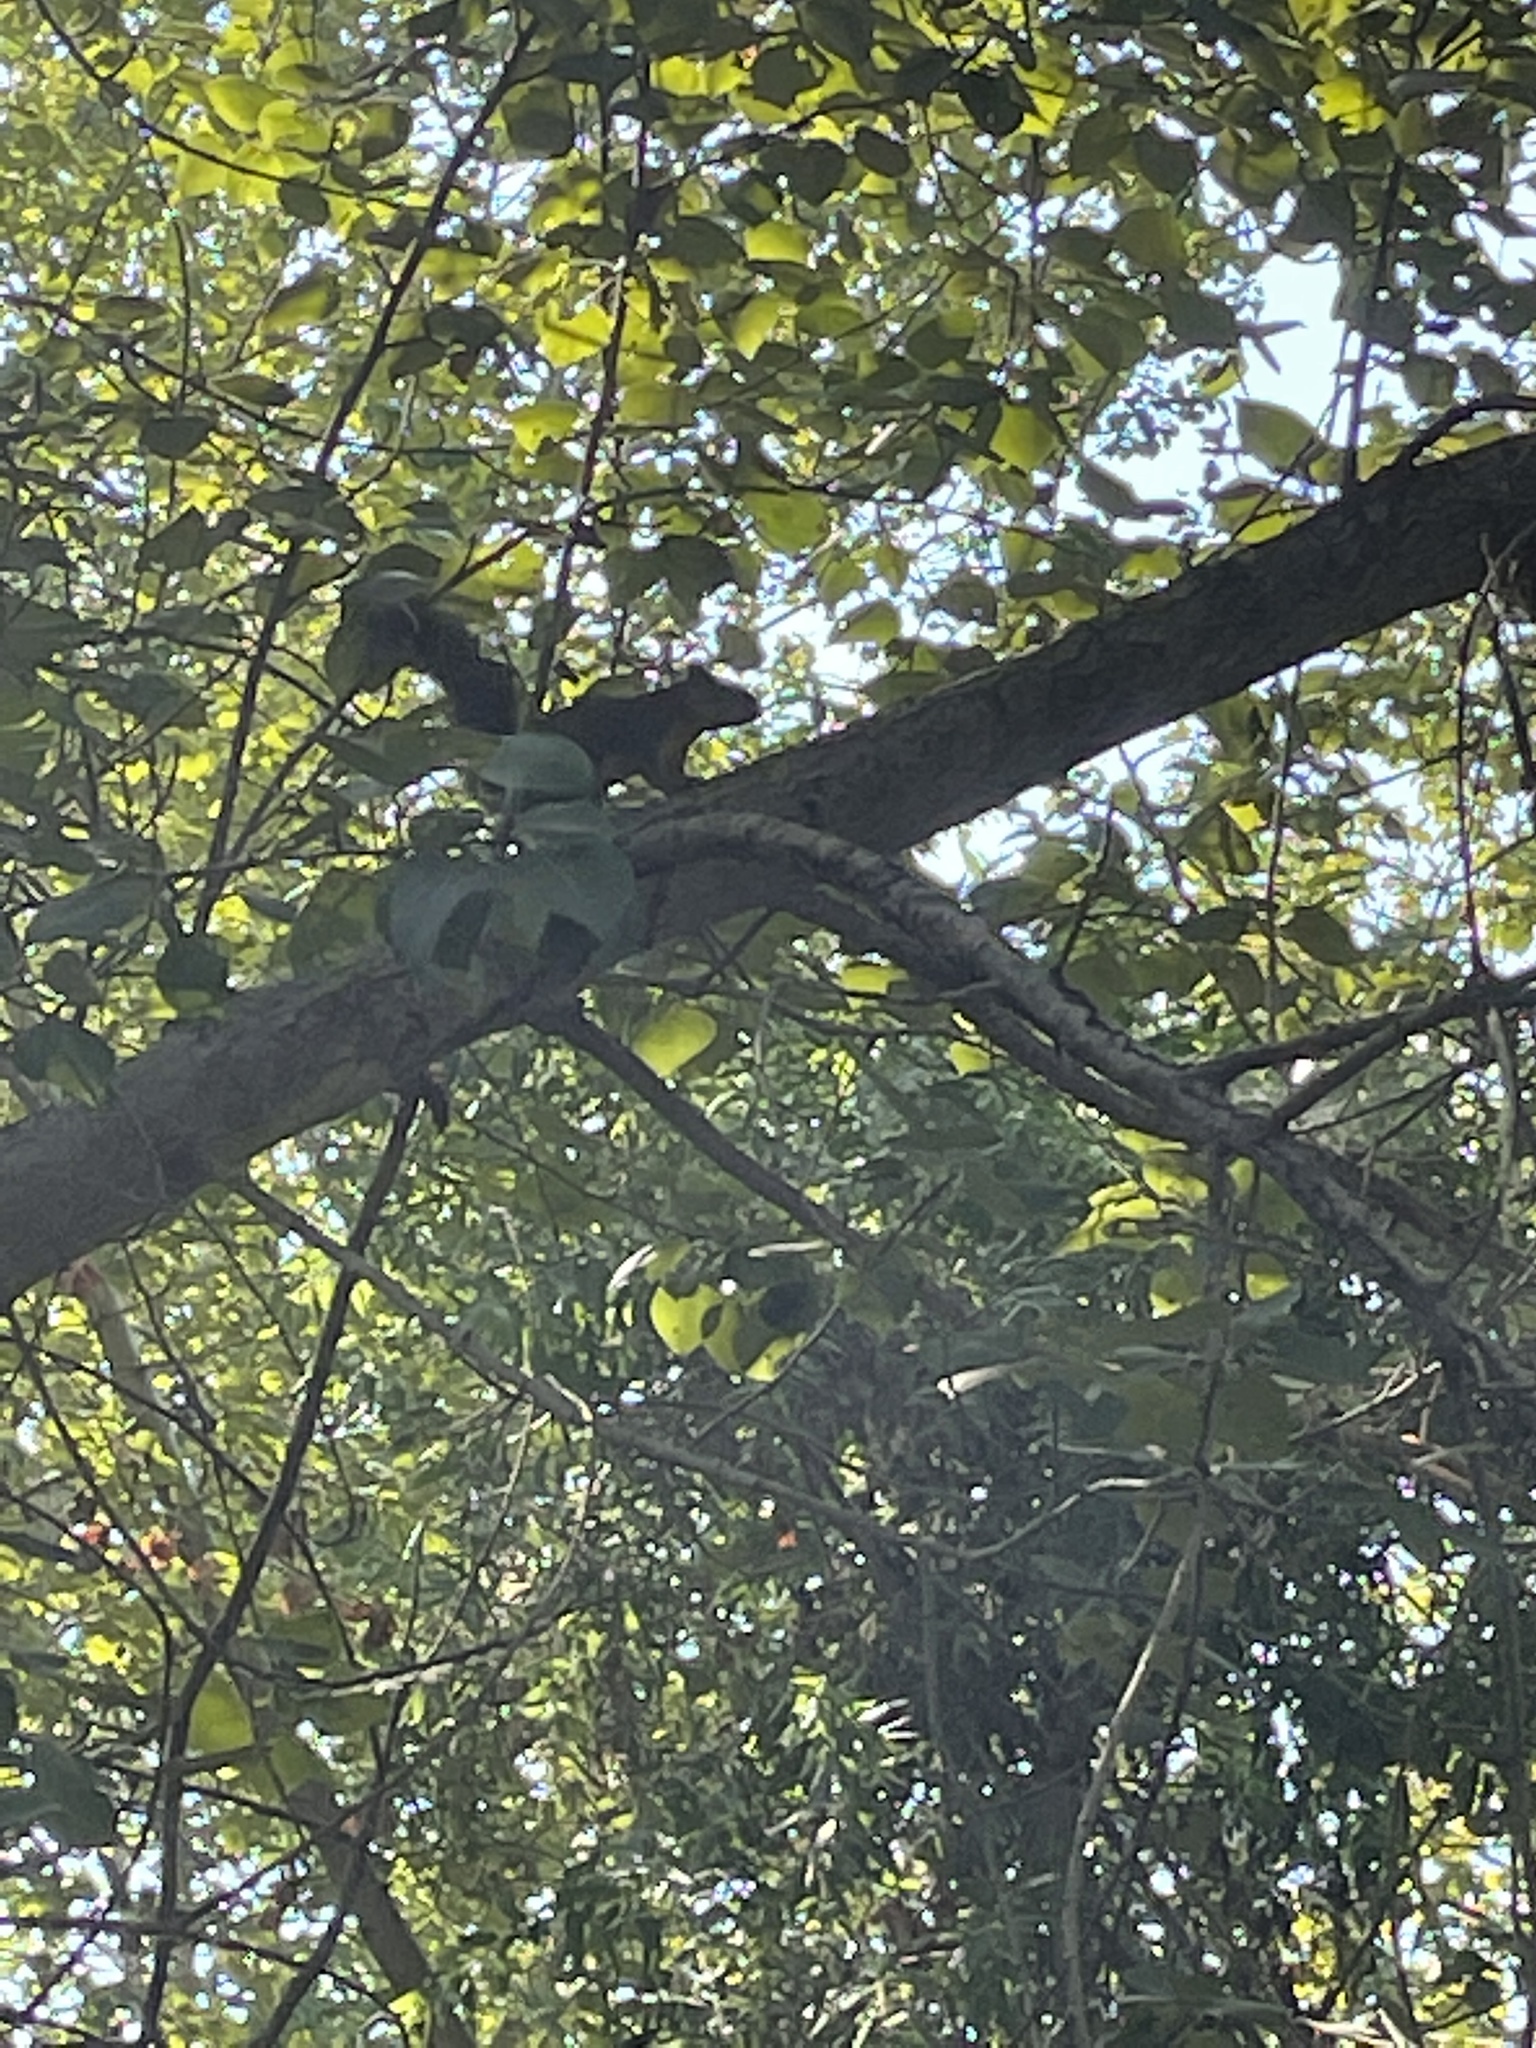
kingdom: Animalia
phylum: Chordata
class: Mammalia
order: Rodentia
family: Sciuridae
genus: Sciurus
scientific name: Sciurus niger
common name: Fox squirrel
